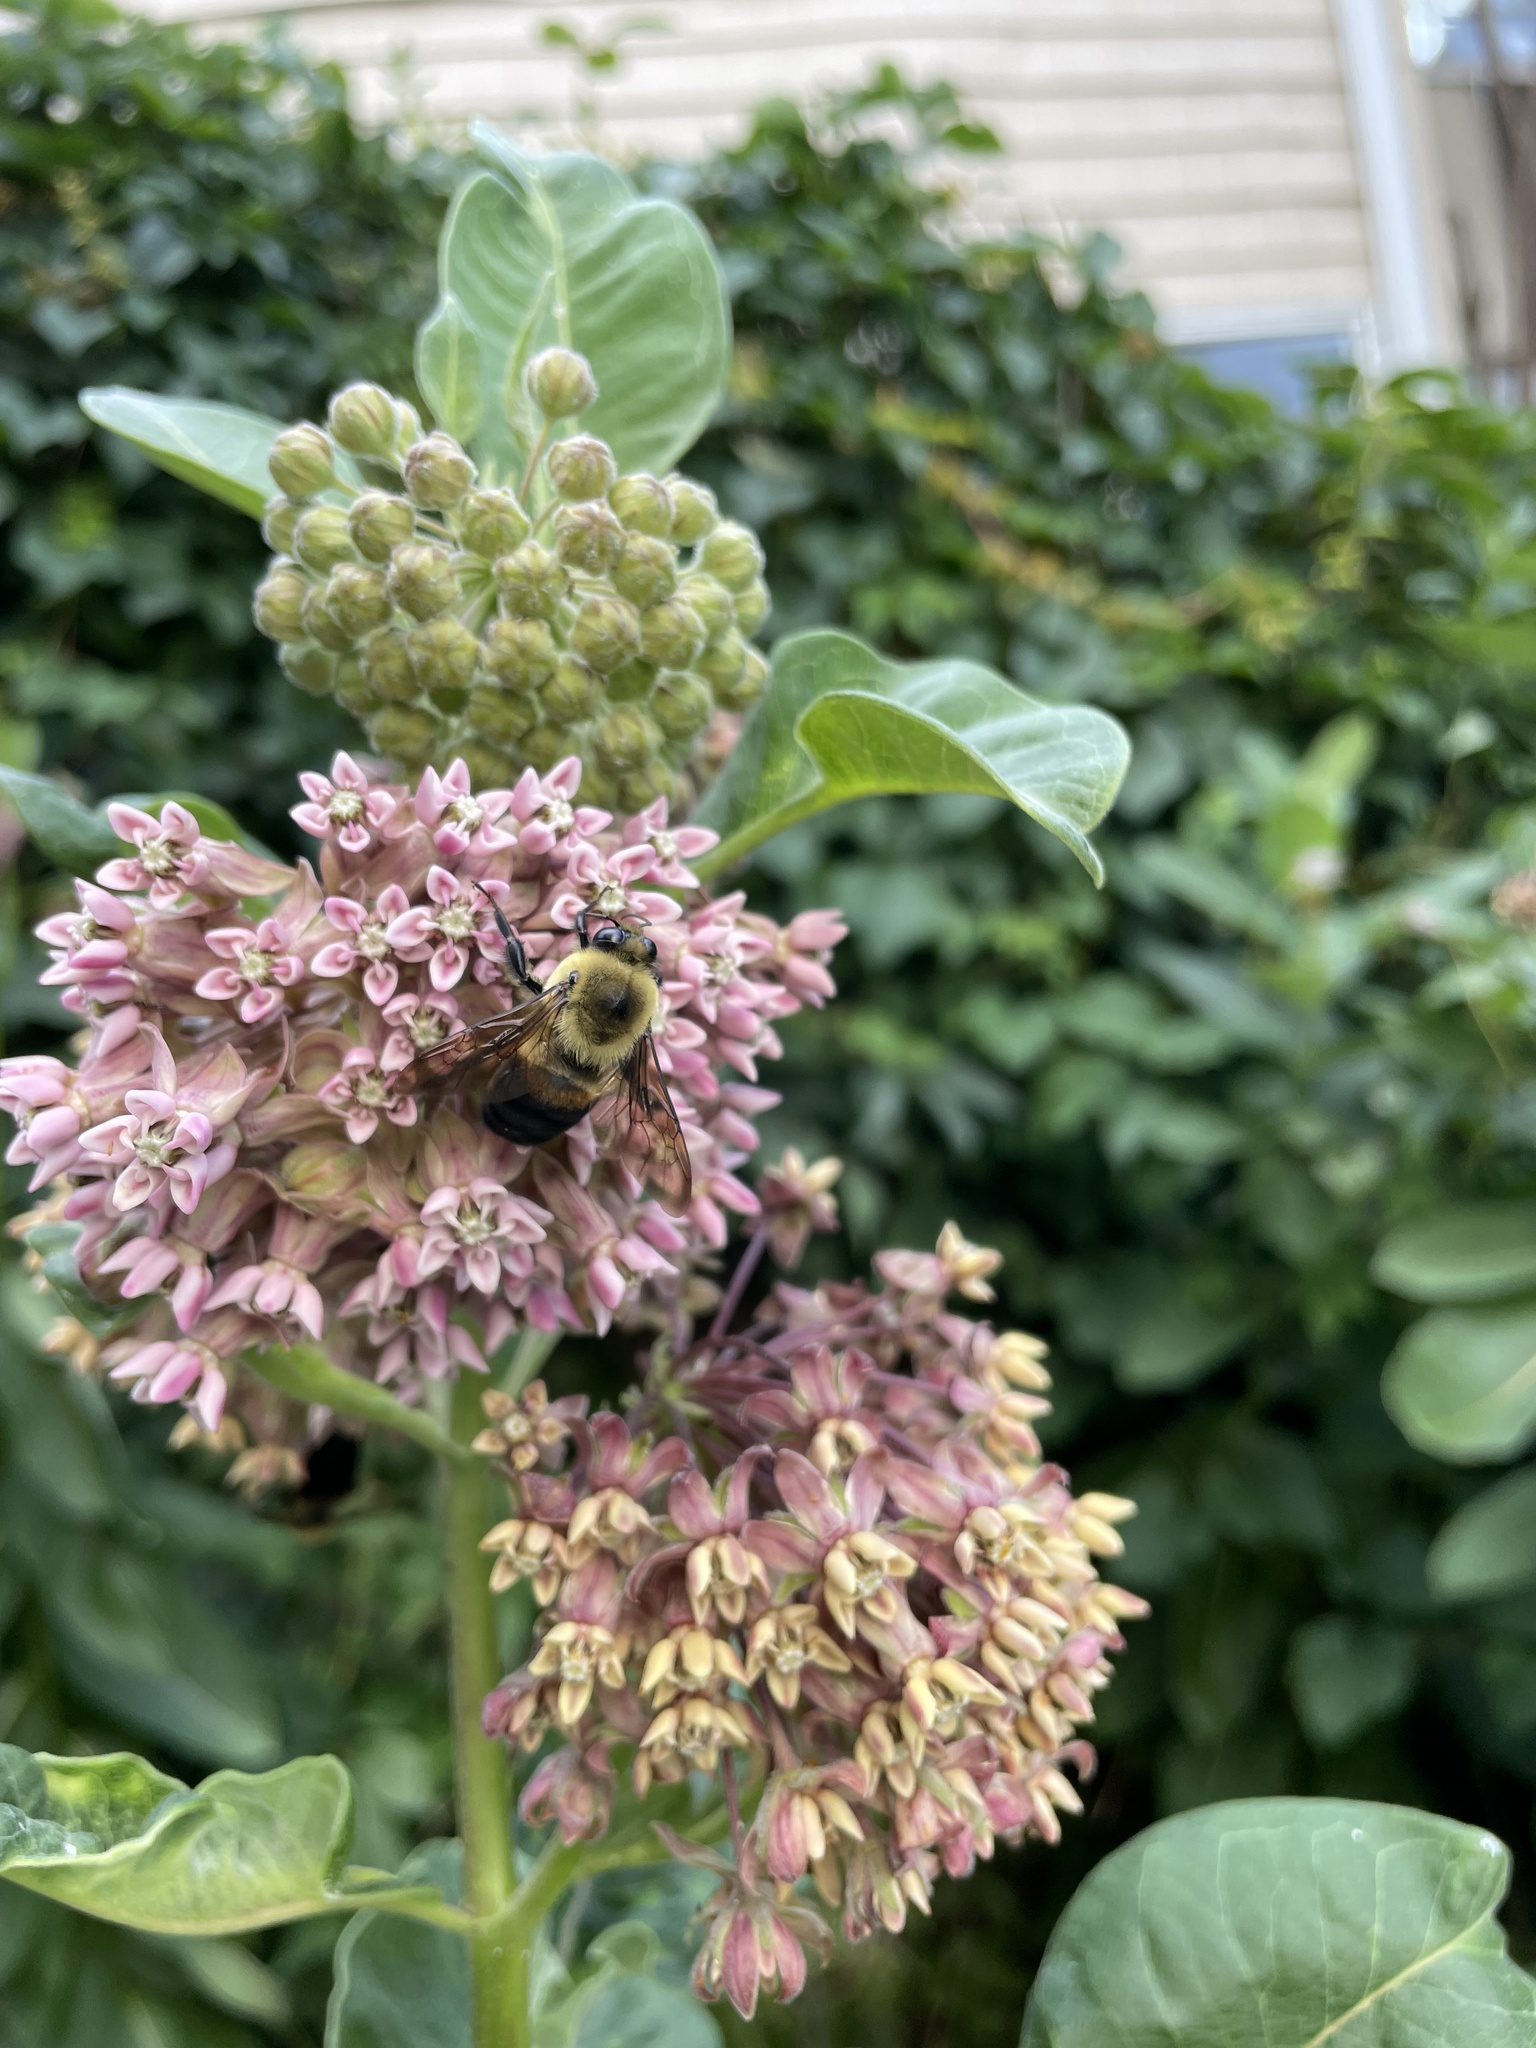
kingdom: Animalia
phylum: Arthropoda
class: Insecta
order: Hymenoptera
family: Apidae
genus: Bombus
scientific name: Bombus griseocollis
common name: Brown-belted bumble bee
